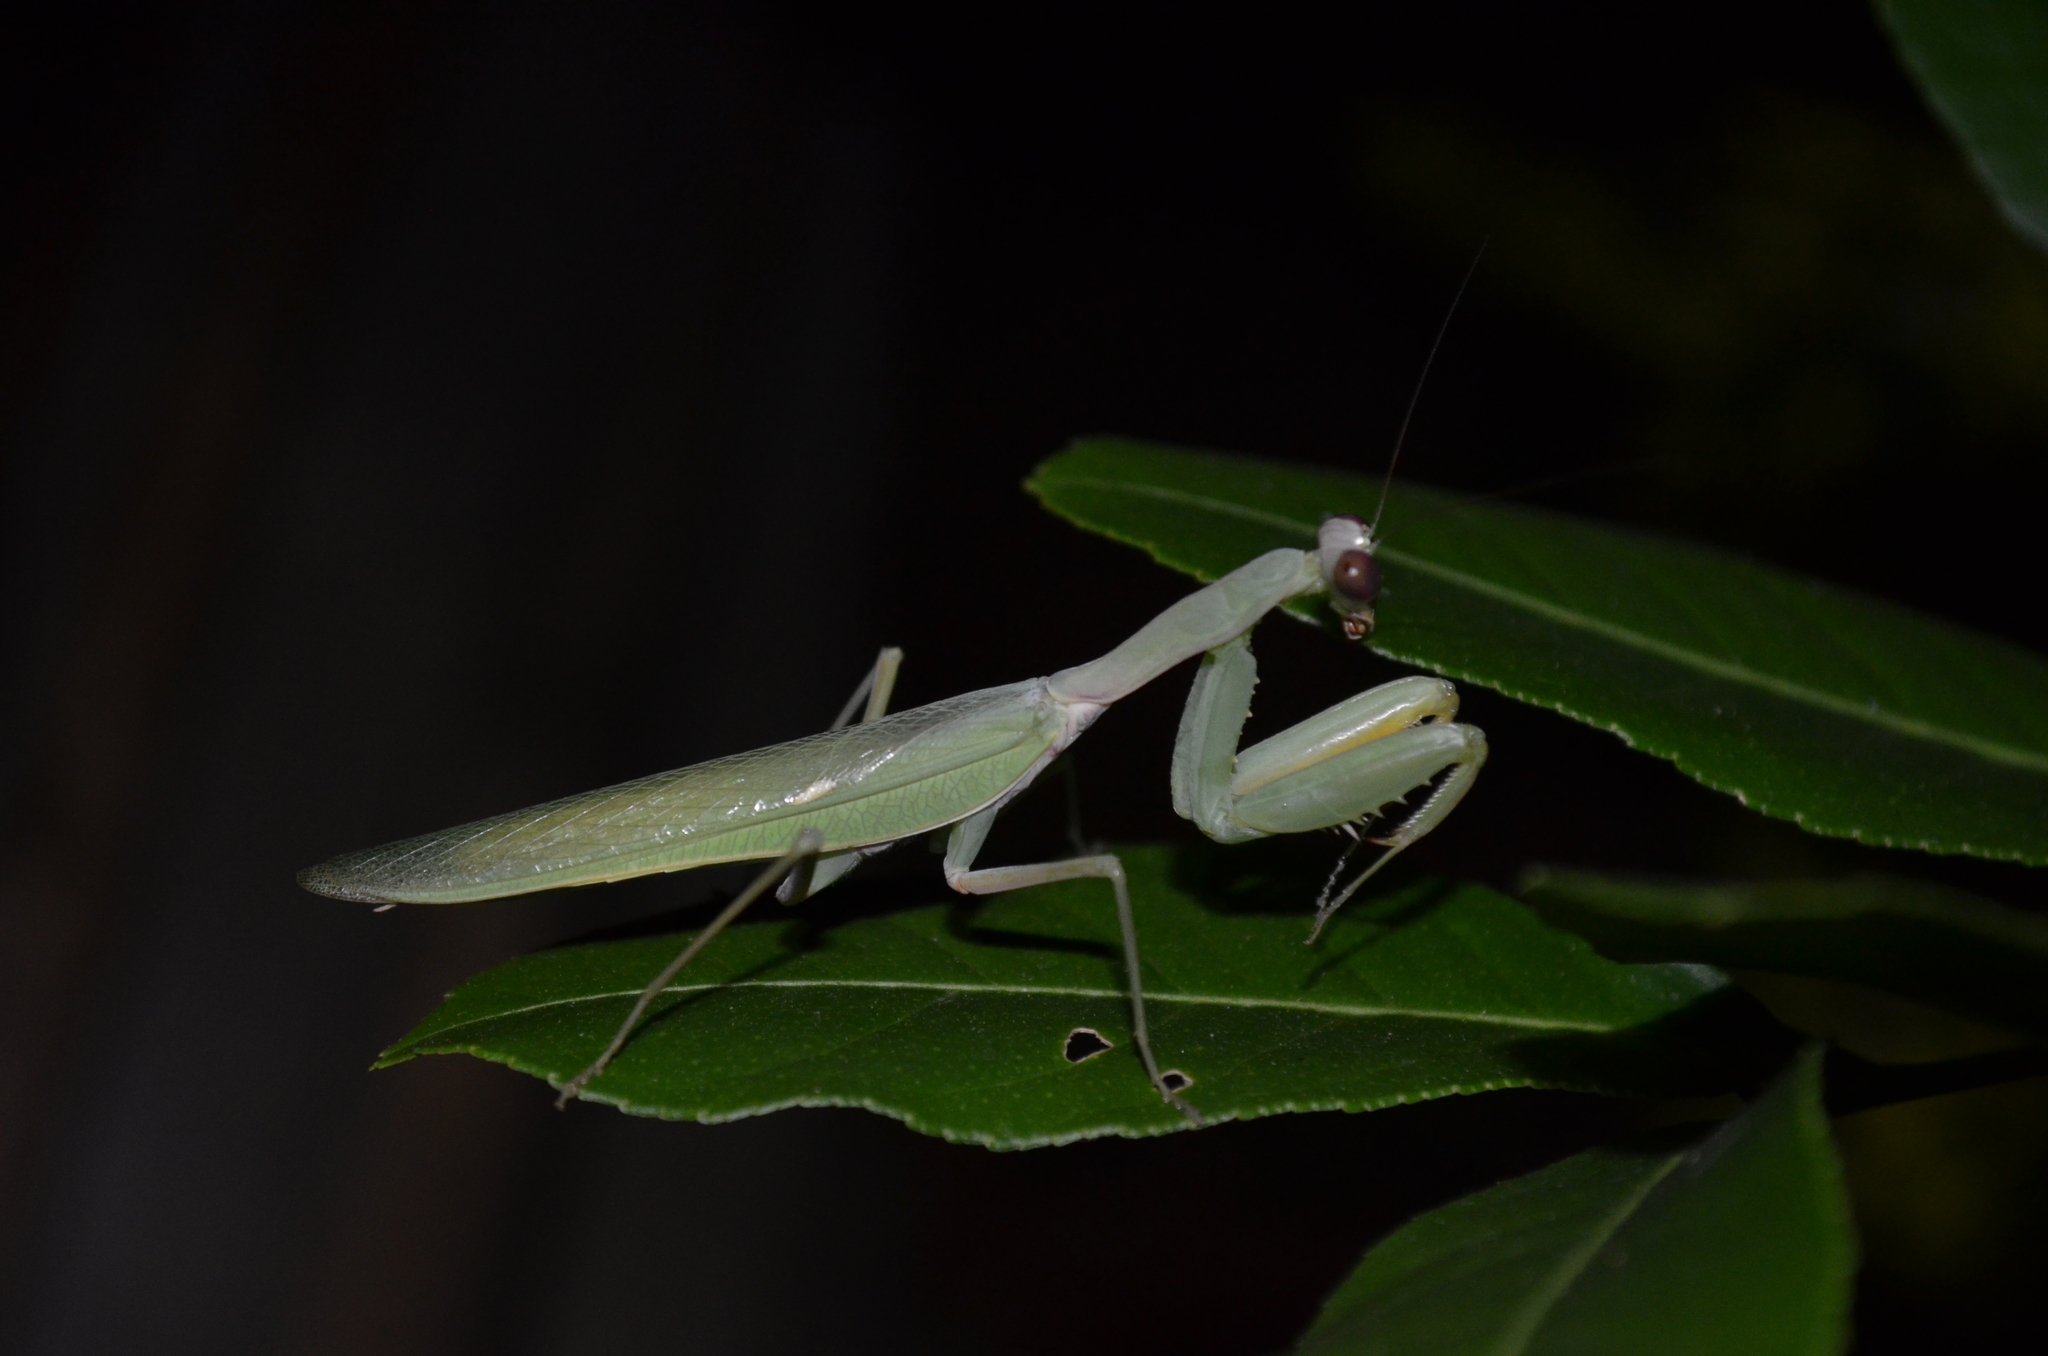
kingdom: Animalia
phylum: Arthropoda
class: Insecta
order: Mantodea
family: Mantidae
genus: Hierodula
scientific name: Hierodula tenuidentata
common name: Giant asian mantis
